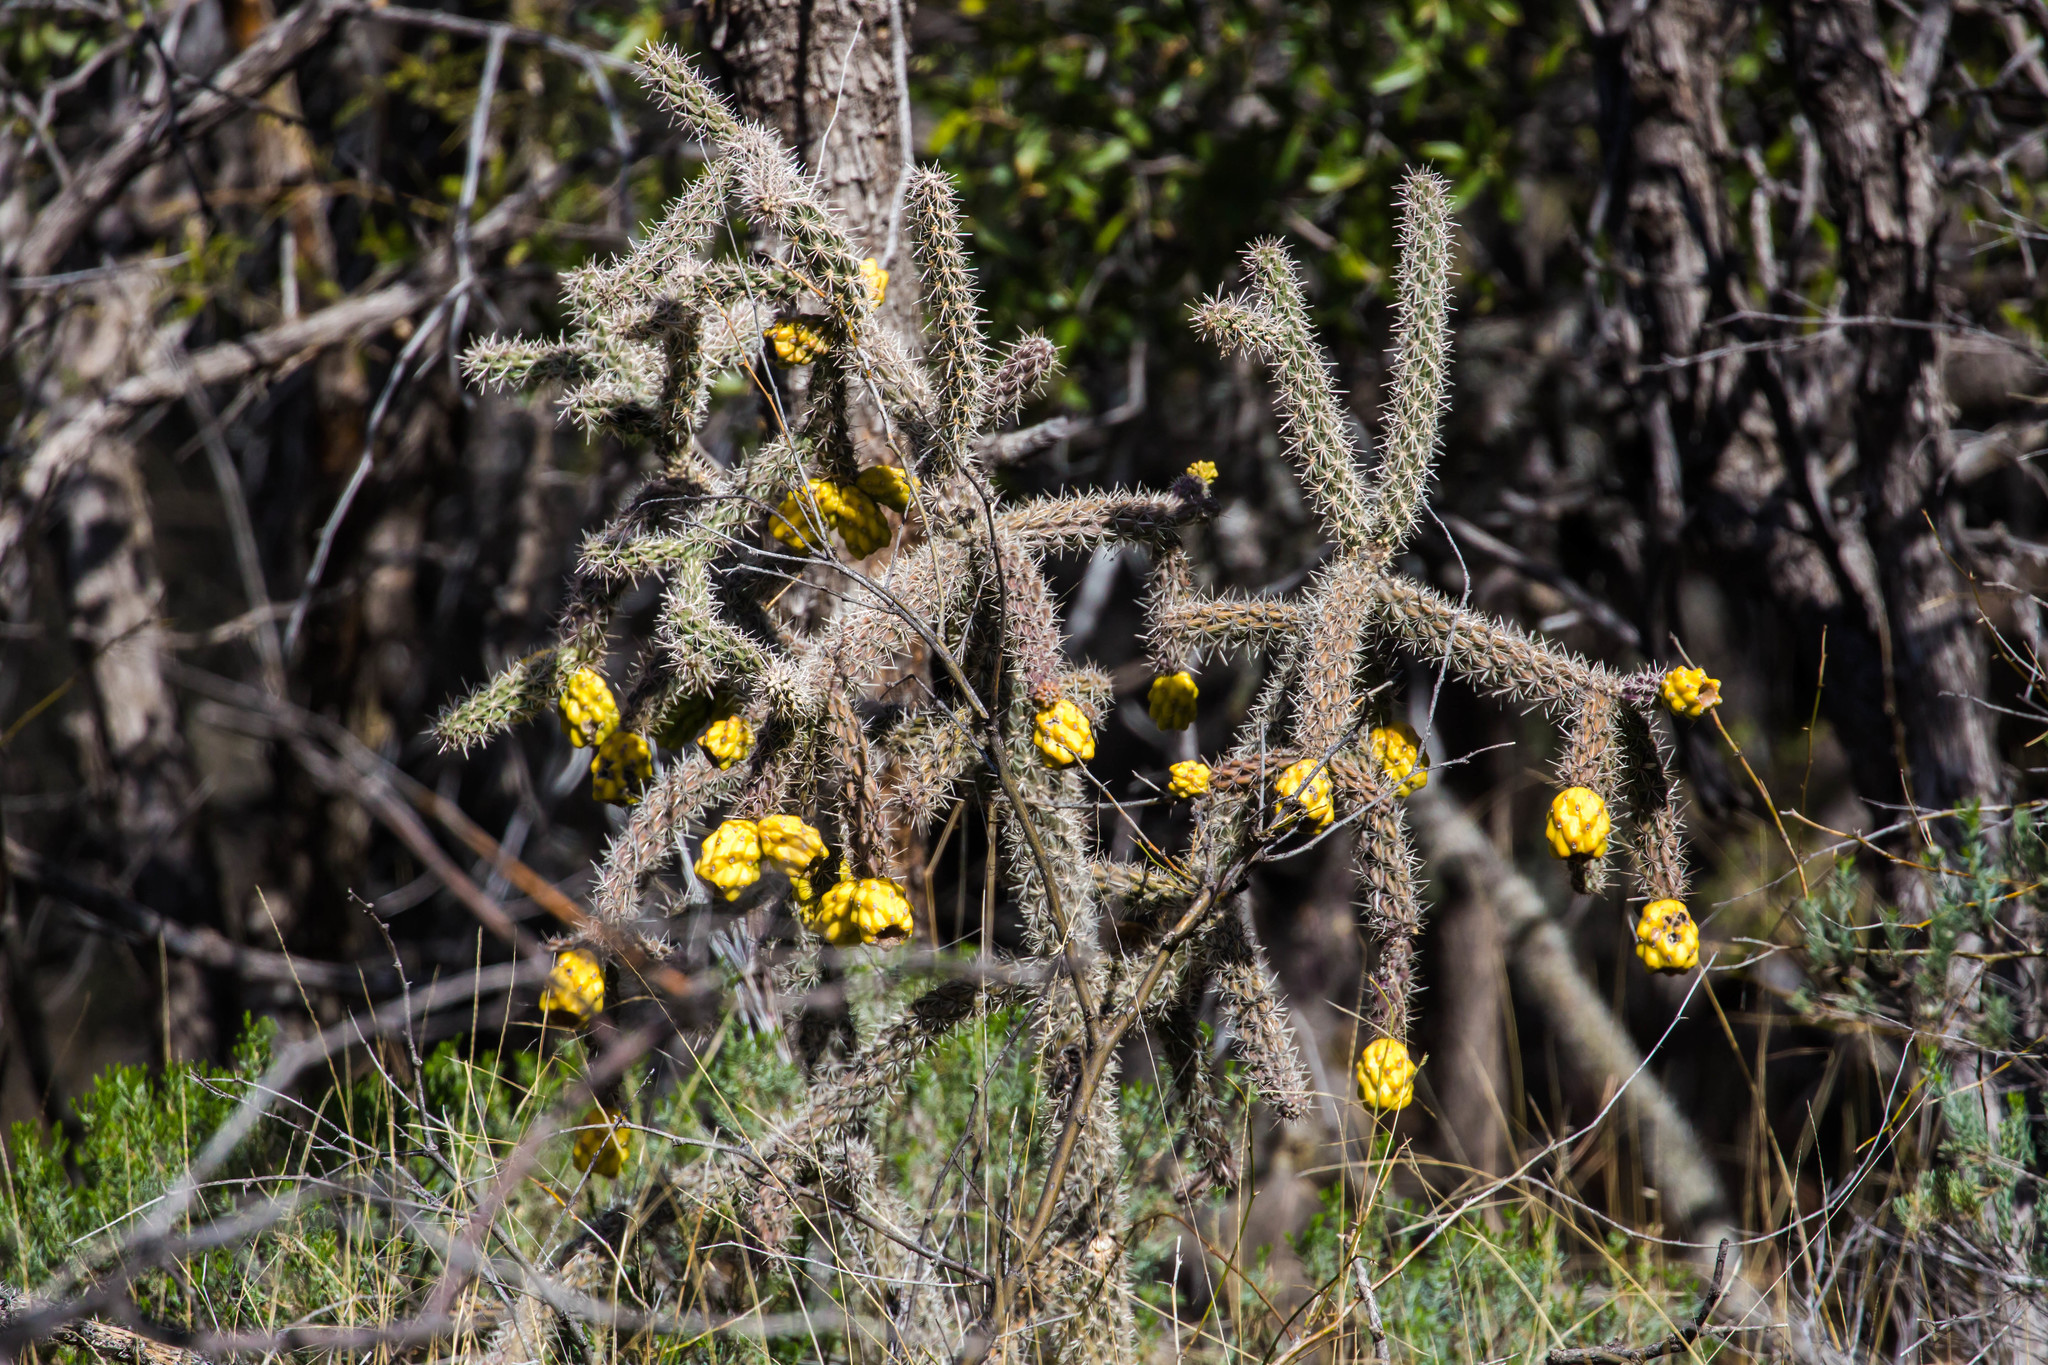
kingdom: Plantae
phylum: Tracheophyta
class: Magnoliopsida
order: Caryophyllales
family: Cactaceae
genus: Cylindropuntia
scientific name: Cylindropuntia imbricata
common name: Candelabrum cactus
